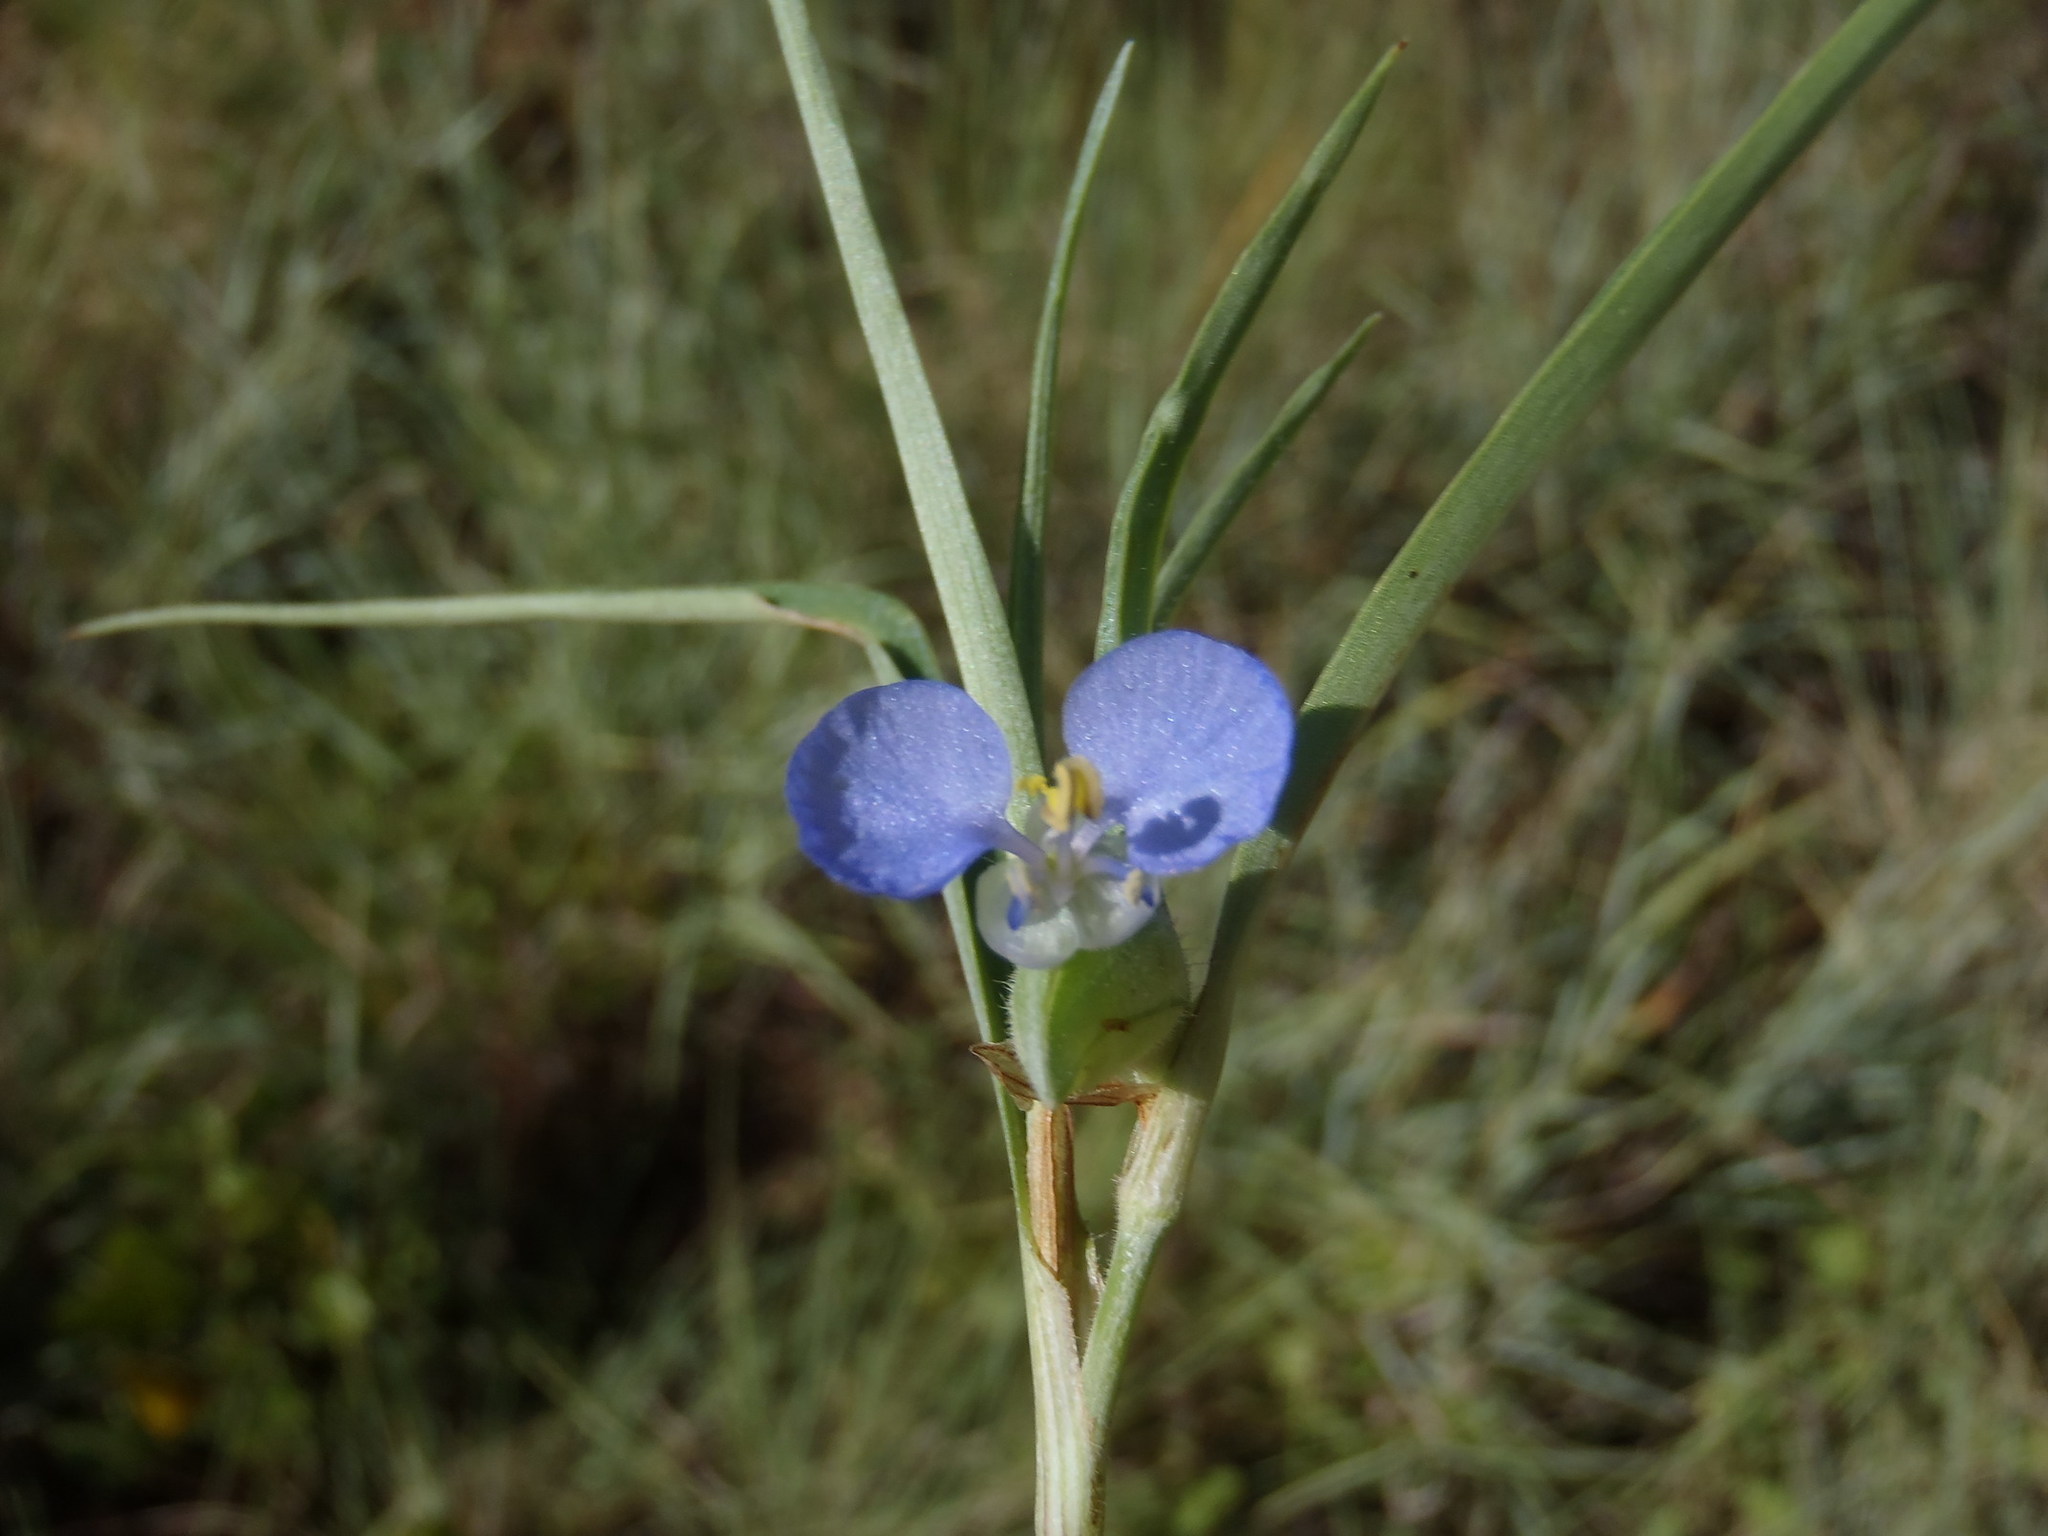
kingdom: Plantae
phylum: Tracheophyta
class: Liliopsida
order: Commelinales
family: Commelinaceae
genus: Commelina
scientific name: Commelina erecta
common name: Blousel blommetjie
